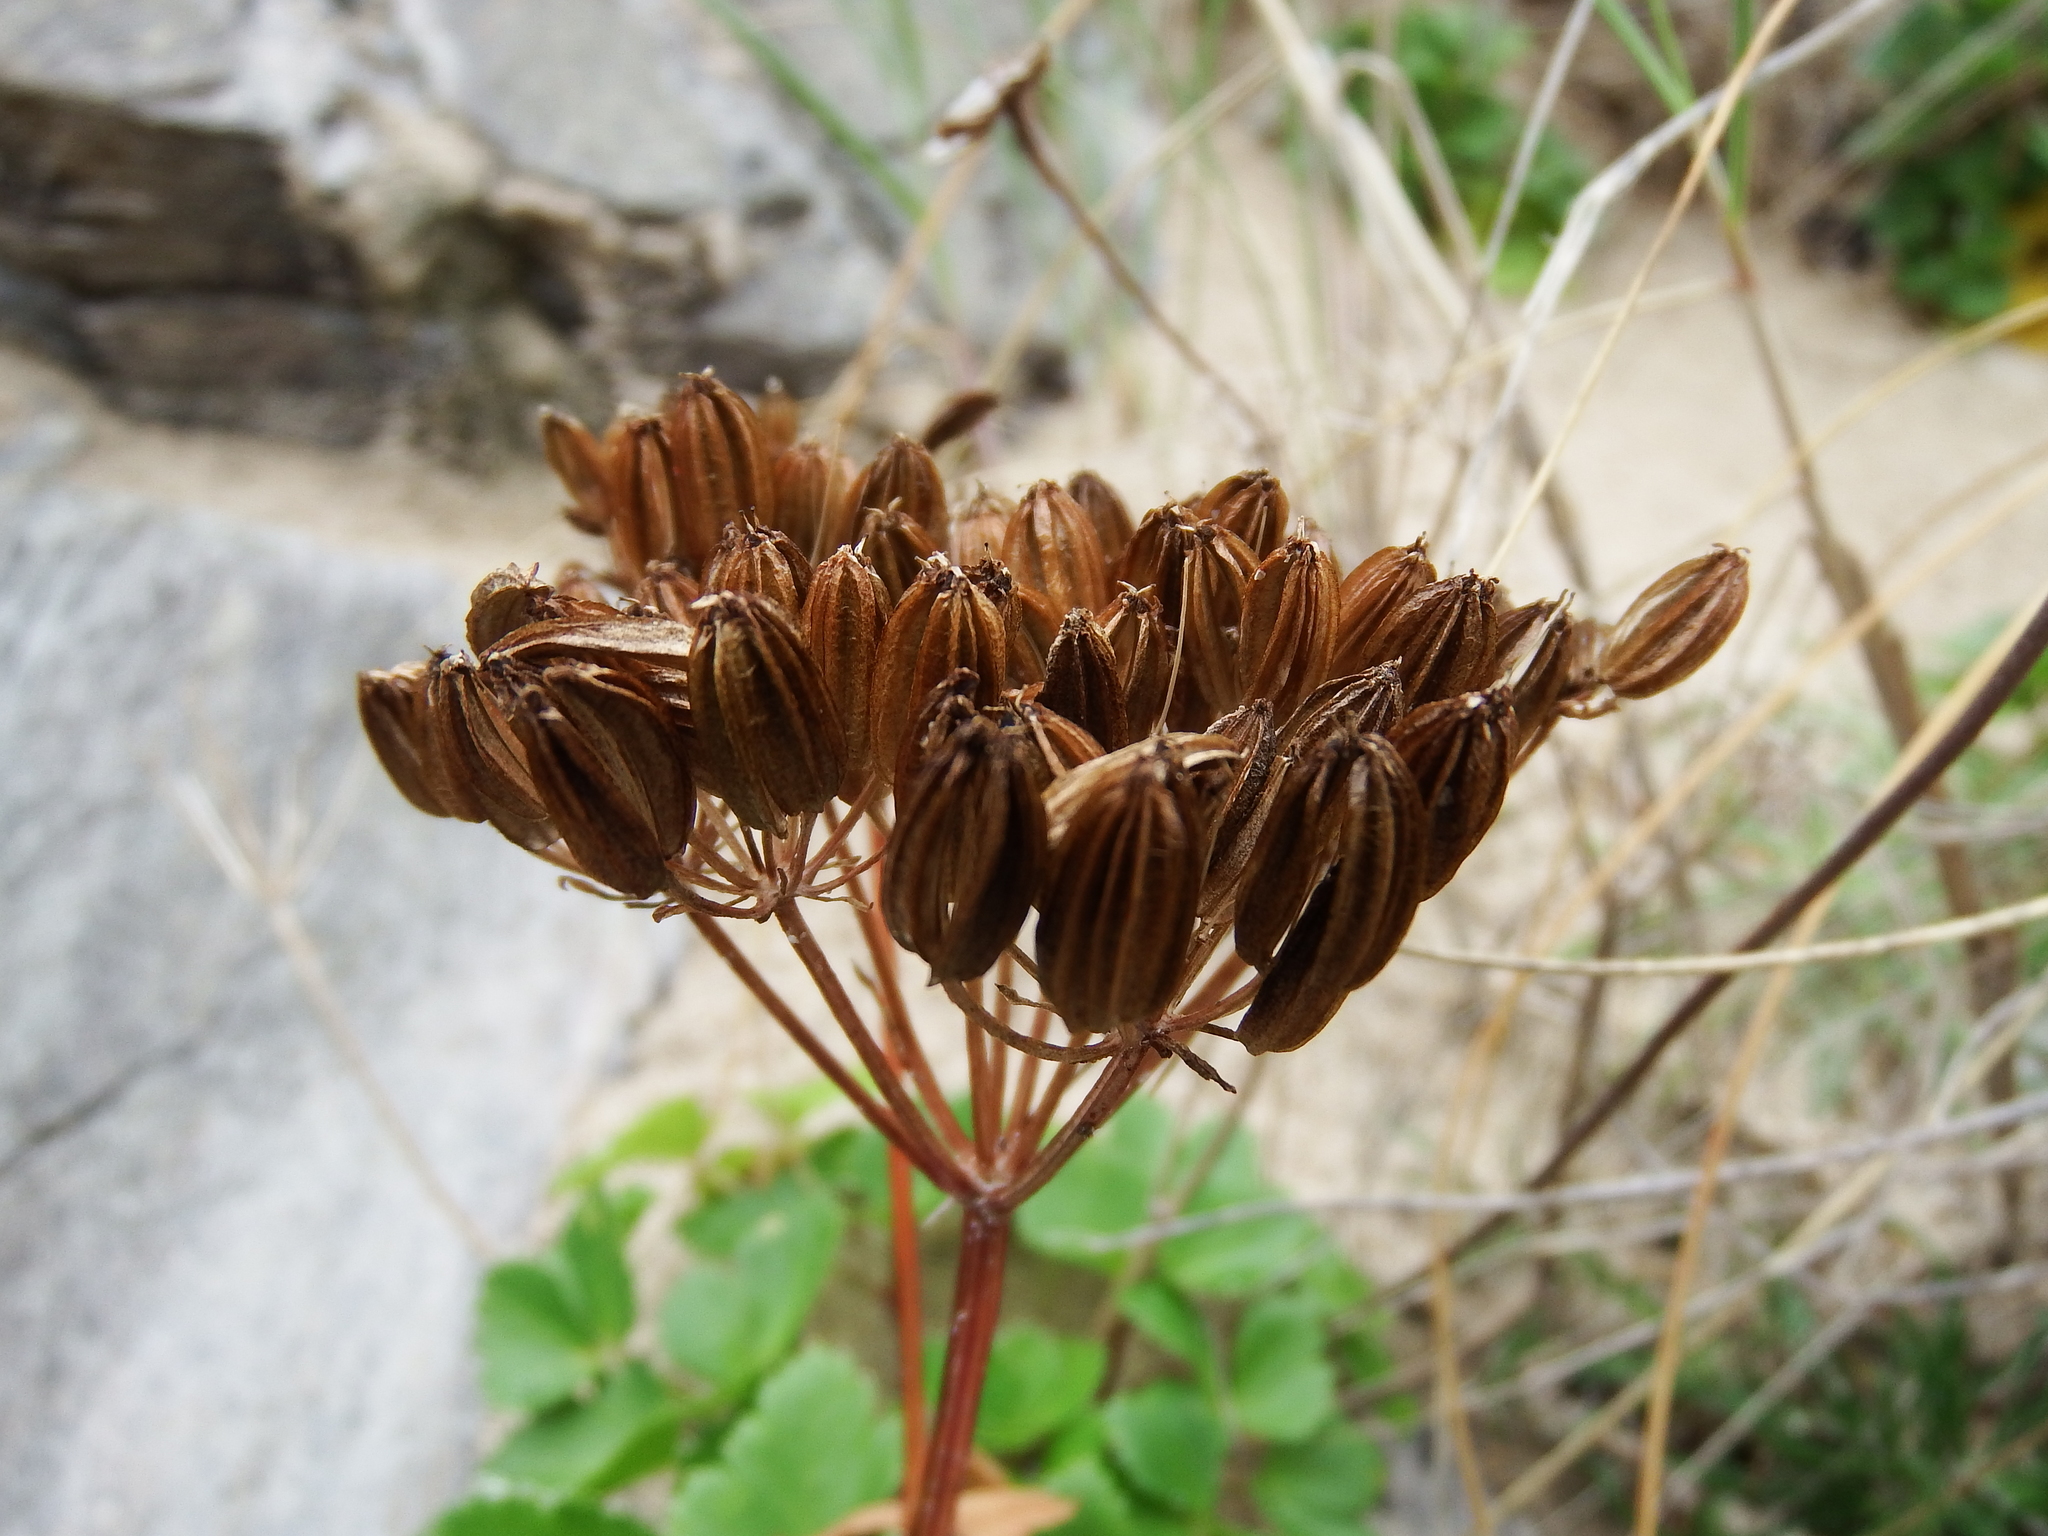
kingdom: Plantae
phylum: Tracheophyta
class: Magnoliopsida
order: Apiales
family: Apiaceae
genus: Ligusticum
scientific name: Ligusticum scothicum
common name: Beach lovage
